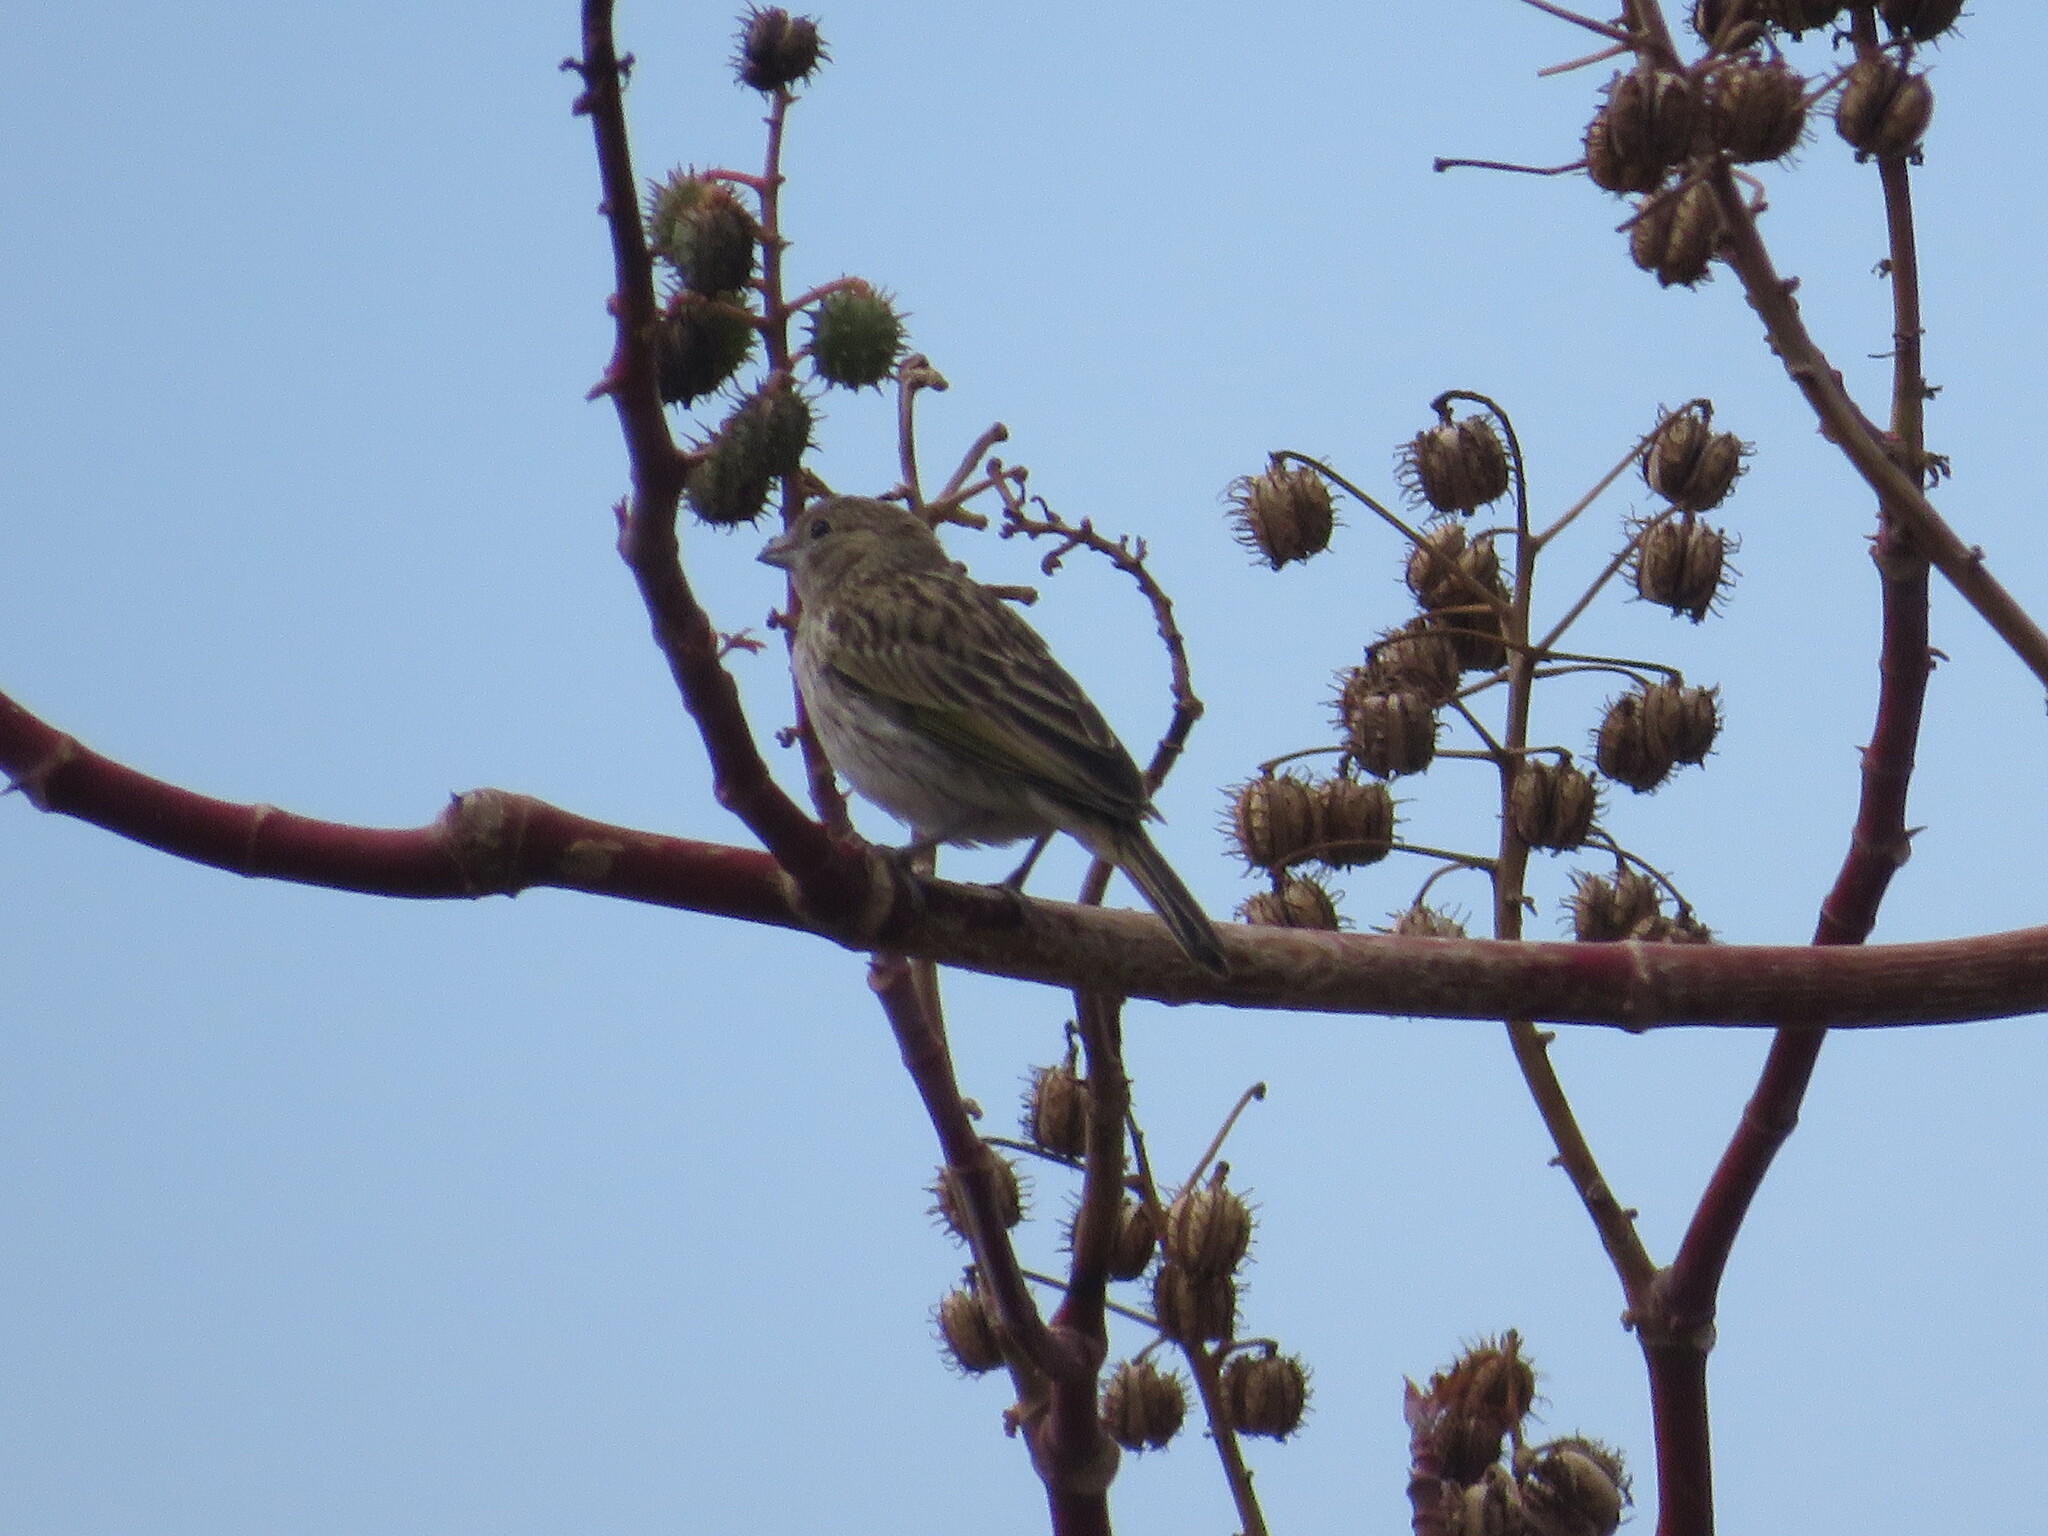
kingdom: Animalia
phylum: Chordata
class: Aves
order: Passeriformes
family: Thraupidae
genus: Sicalis
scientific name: Sicalis flaveola
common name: Saffron finch
